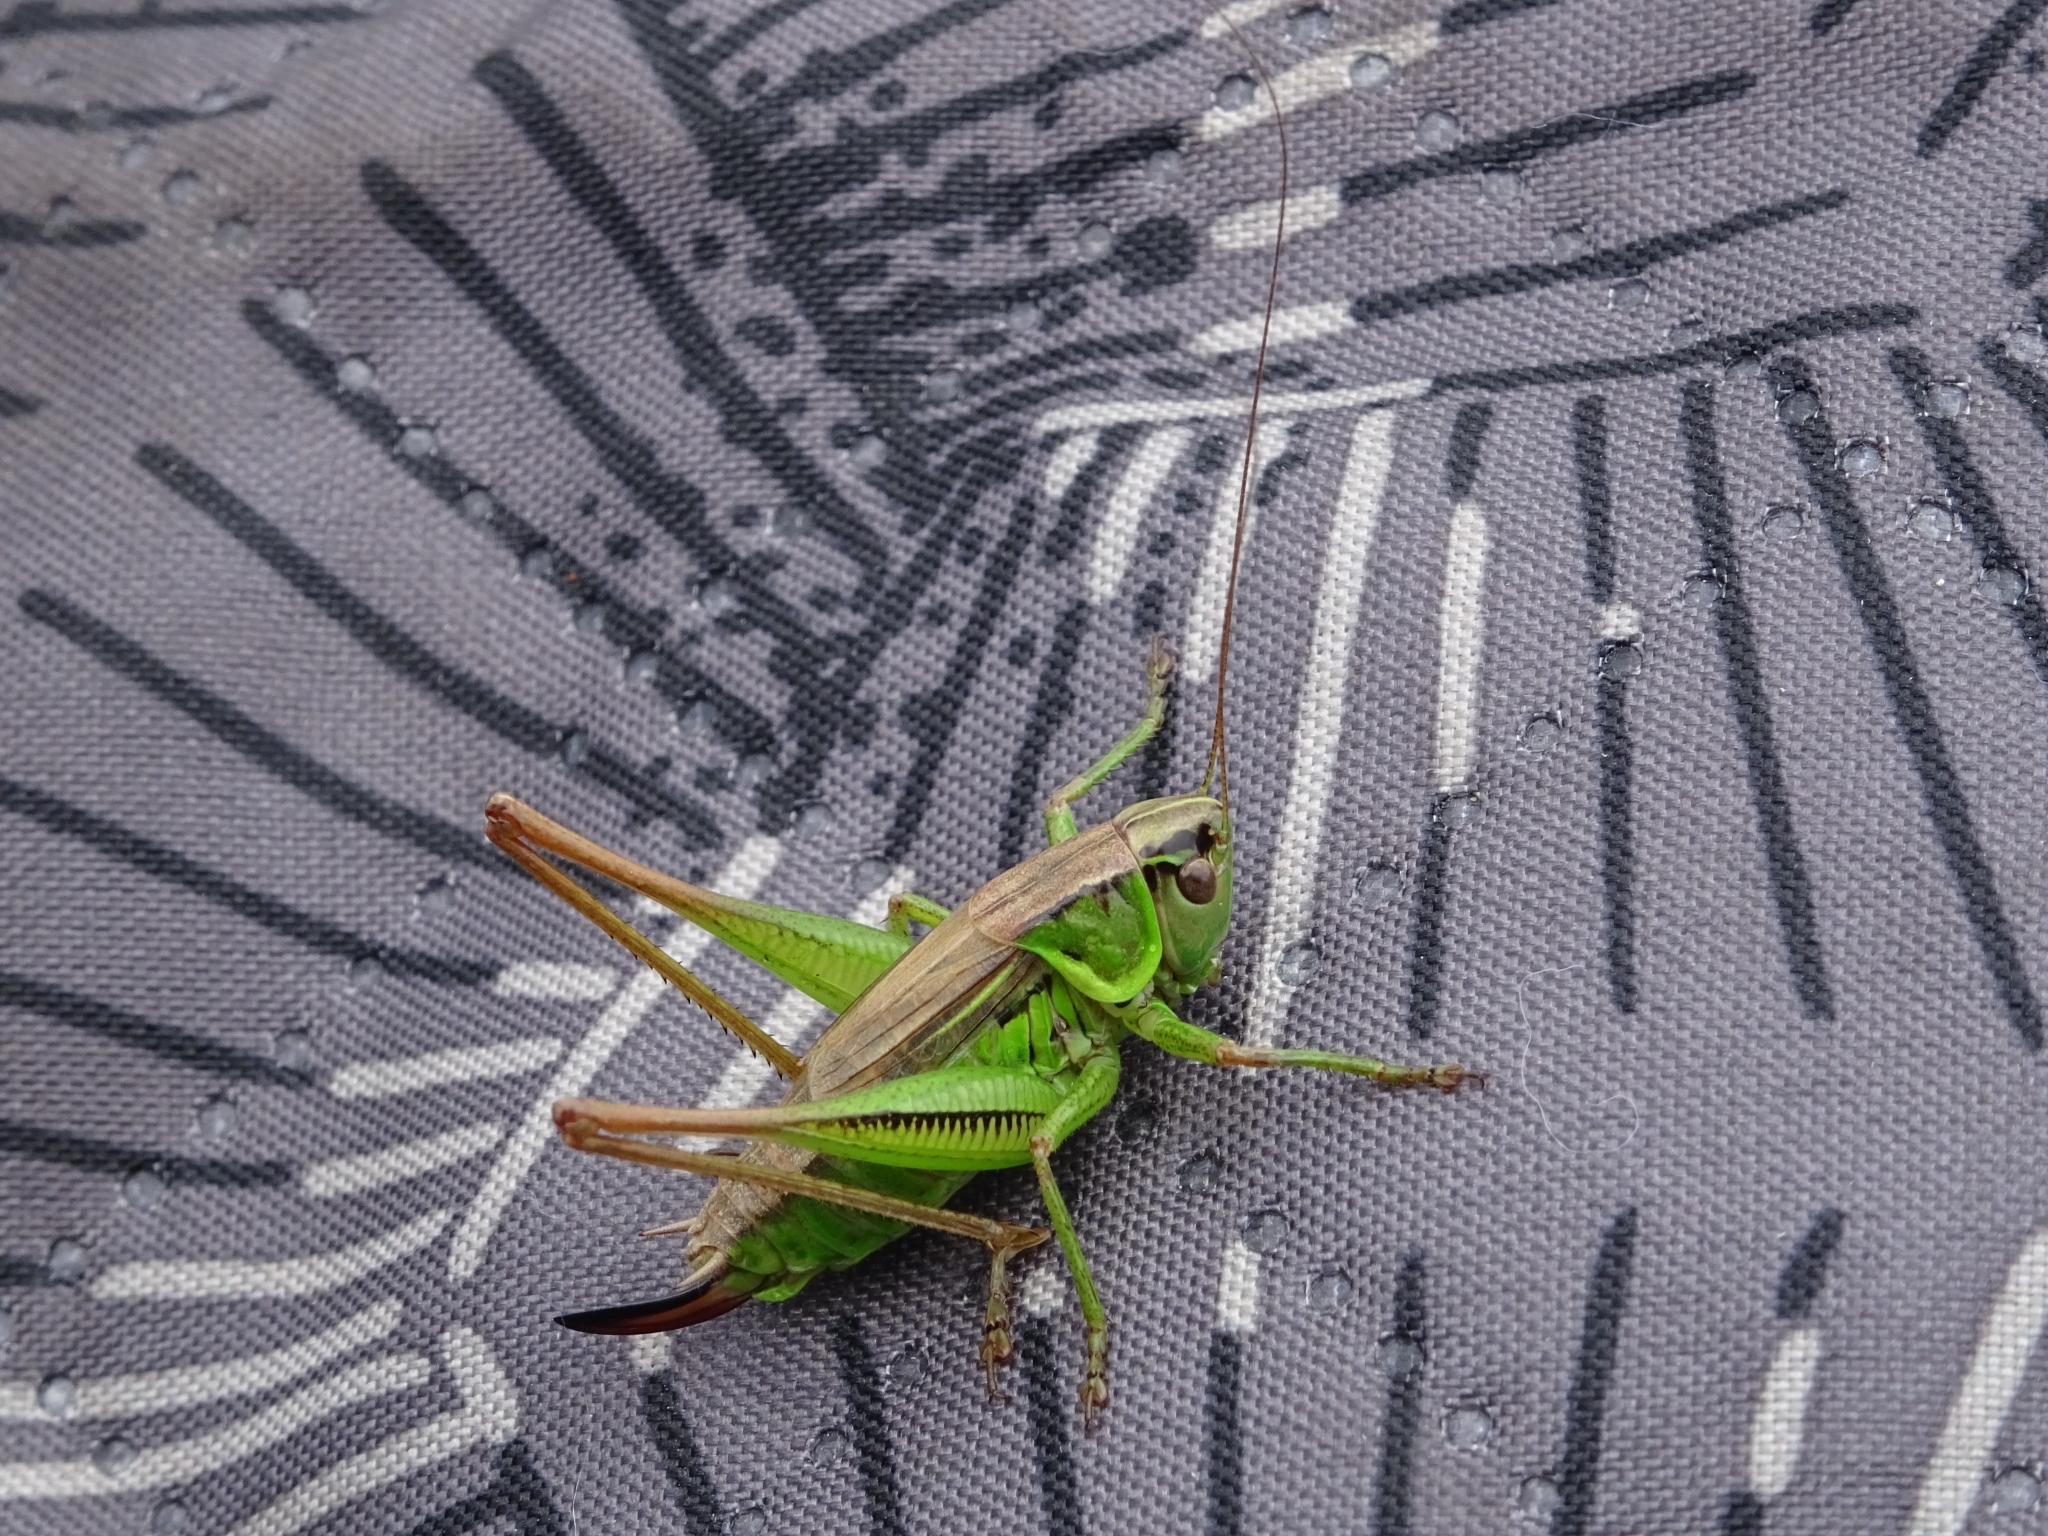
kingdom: Animalia
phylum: Arthropoda
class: Insecta
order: Orthoptera
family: Tettigoniidae
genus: Roeseliana
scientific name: Roeseliana roeselii
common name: Roesel's bush cricket
